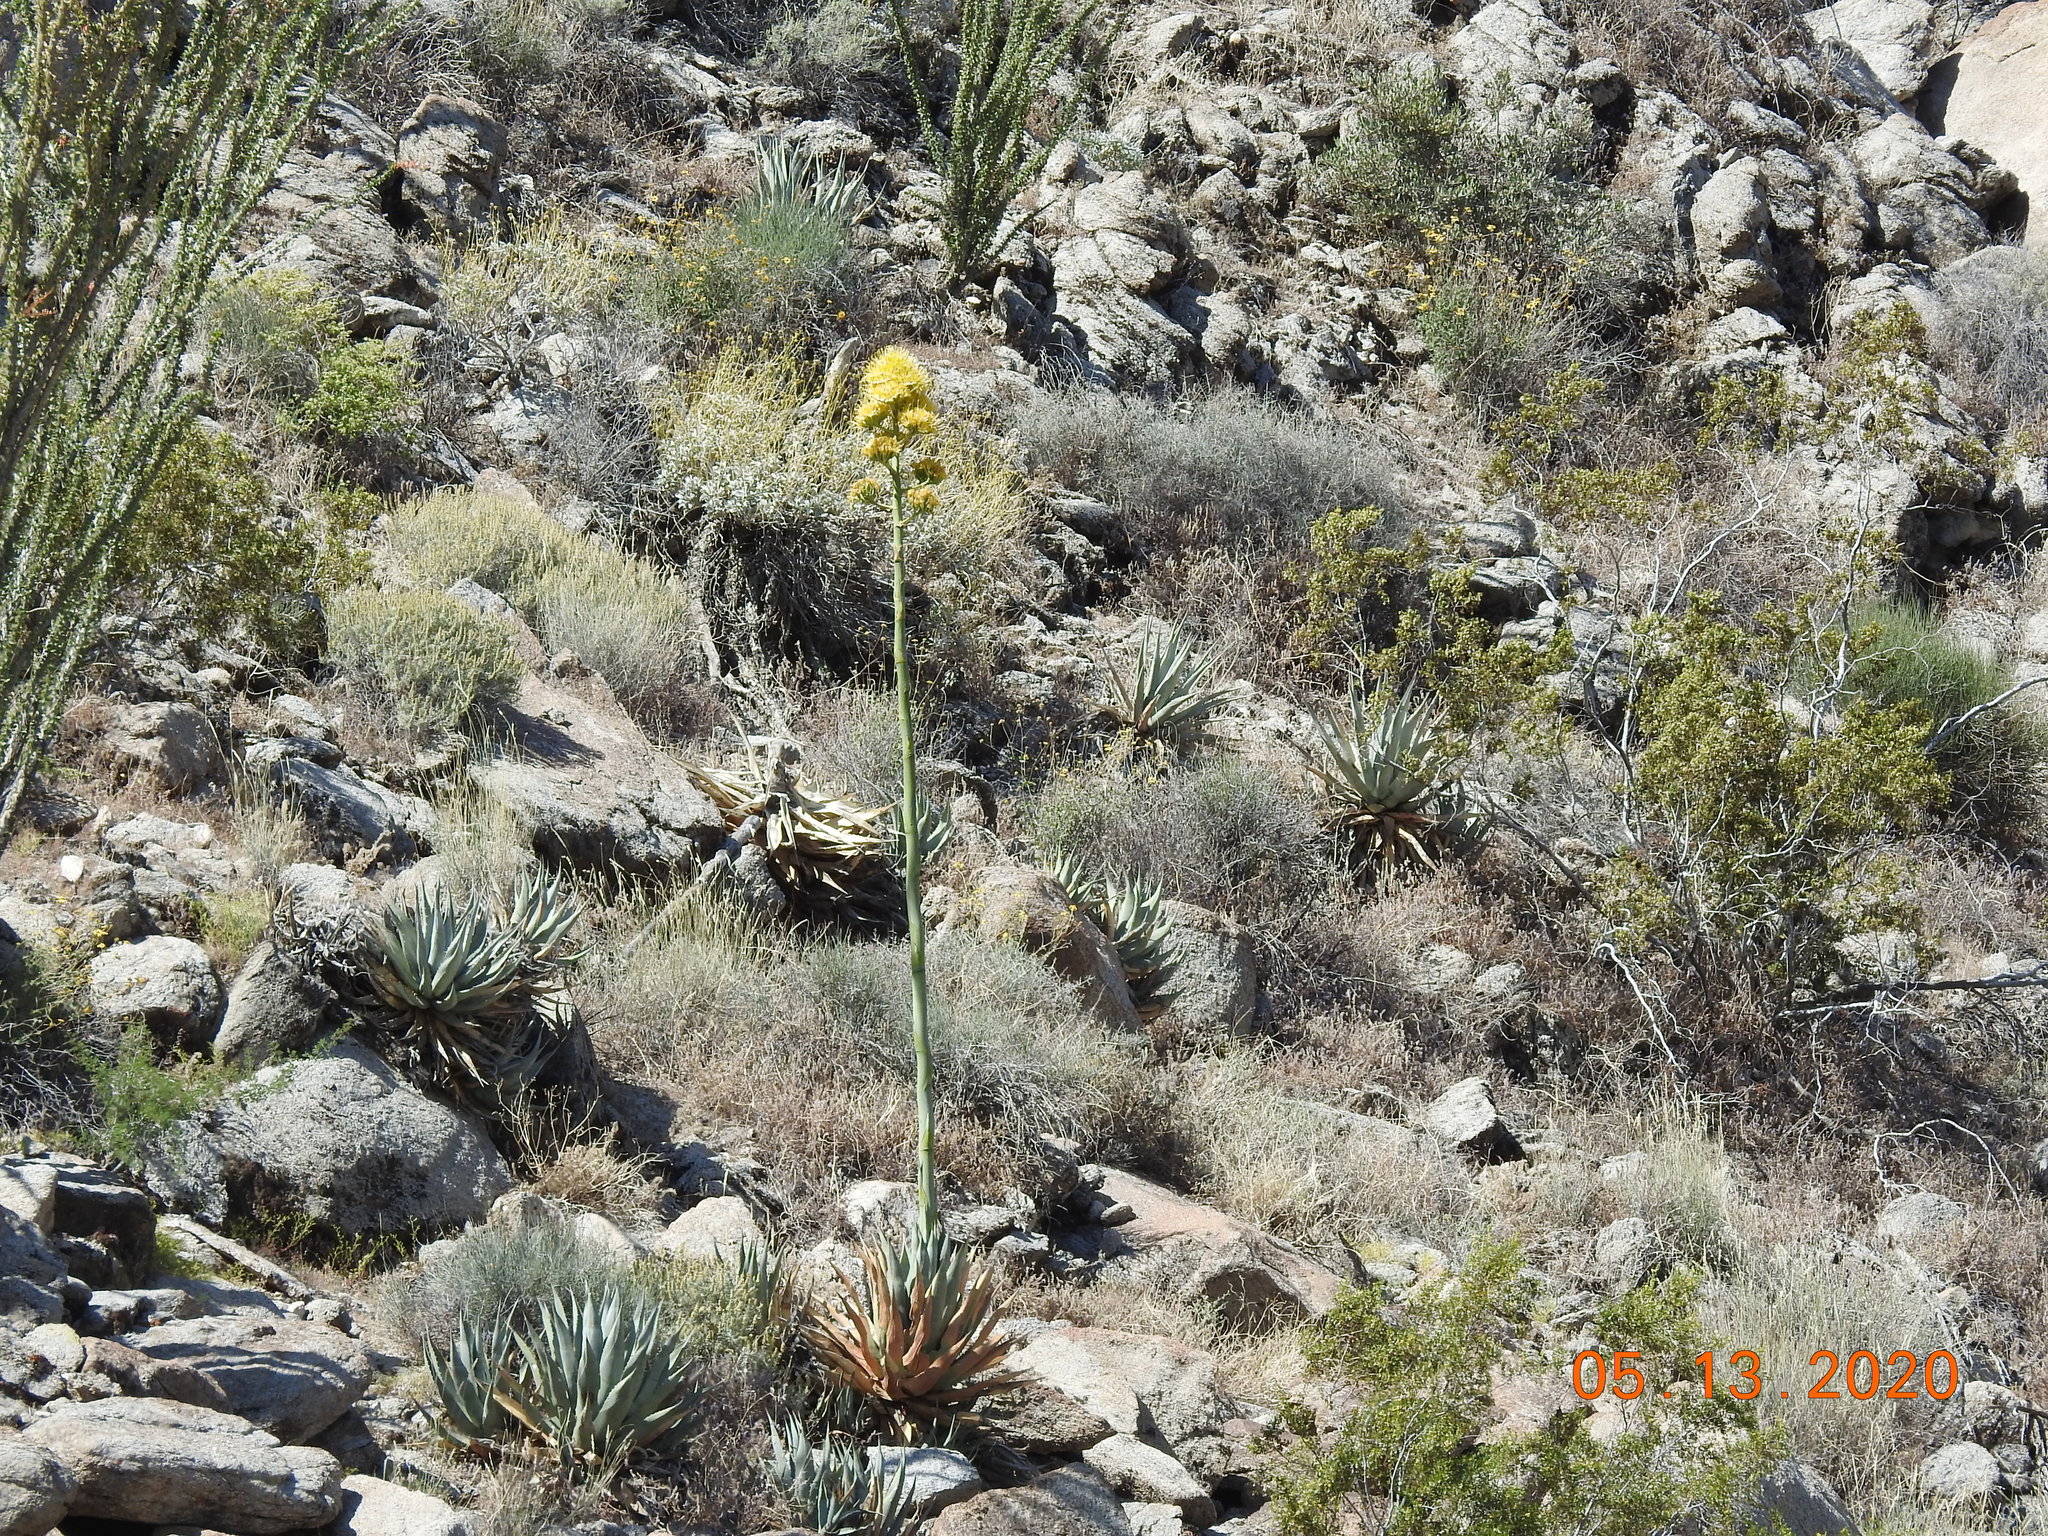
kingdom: Plantae
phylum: Tracheophyta
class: Liliopsida
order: Asparagales
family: Asparagaceae
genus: Agave
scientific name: Agave deserti
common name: Desert agave
